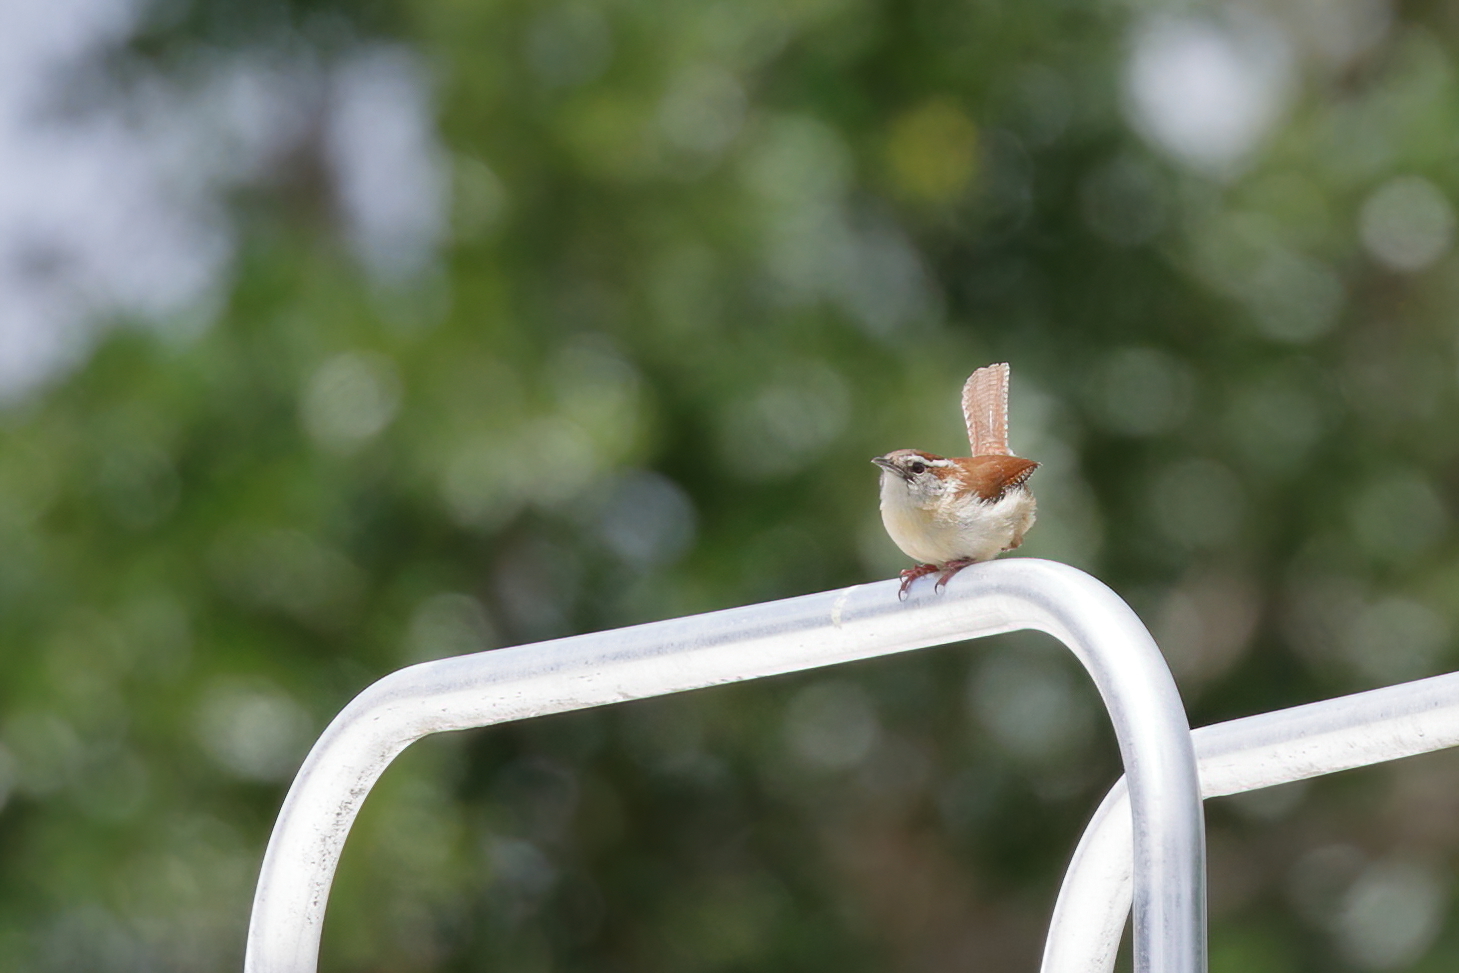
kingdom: Animalia
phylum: Chordata
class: Aves
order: Passeriformes
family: Troglodytidae
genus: Thryothorus
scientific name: Thryothorus ludovicianus
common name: Carolina wren
